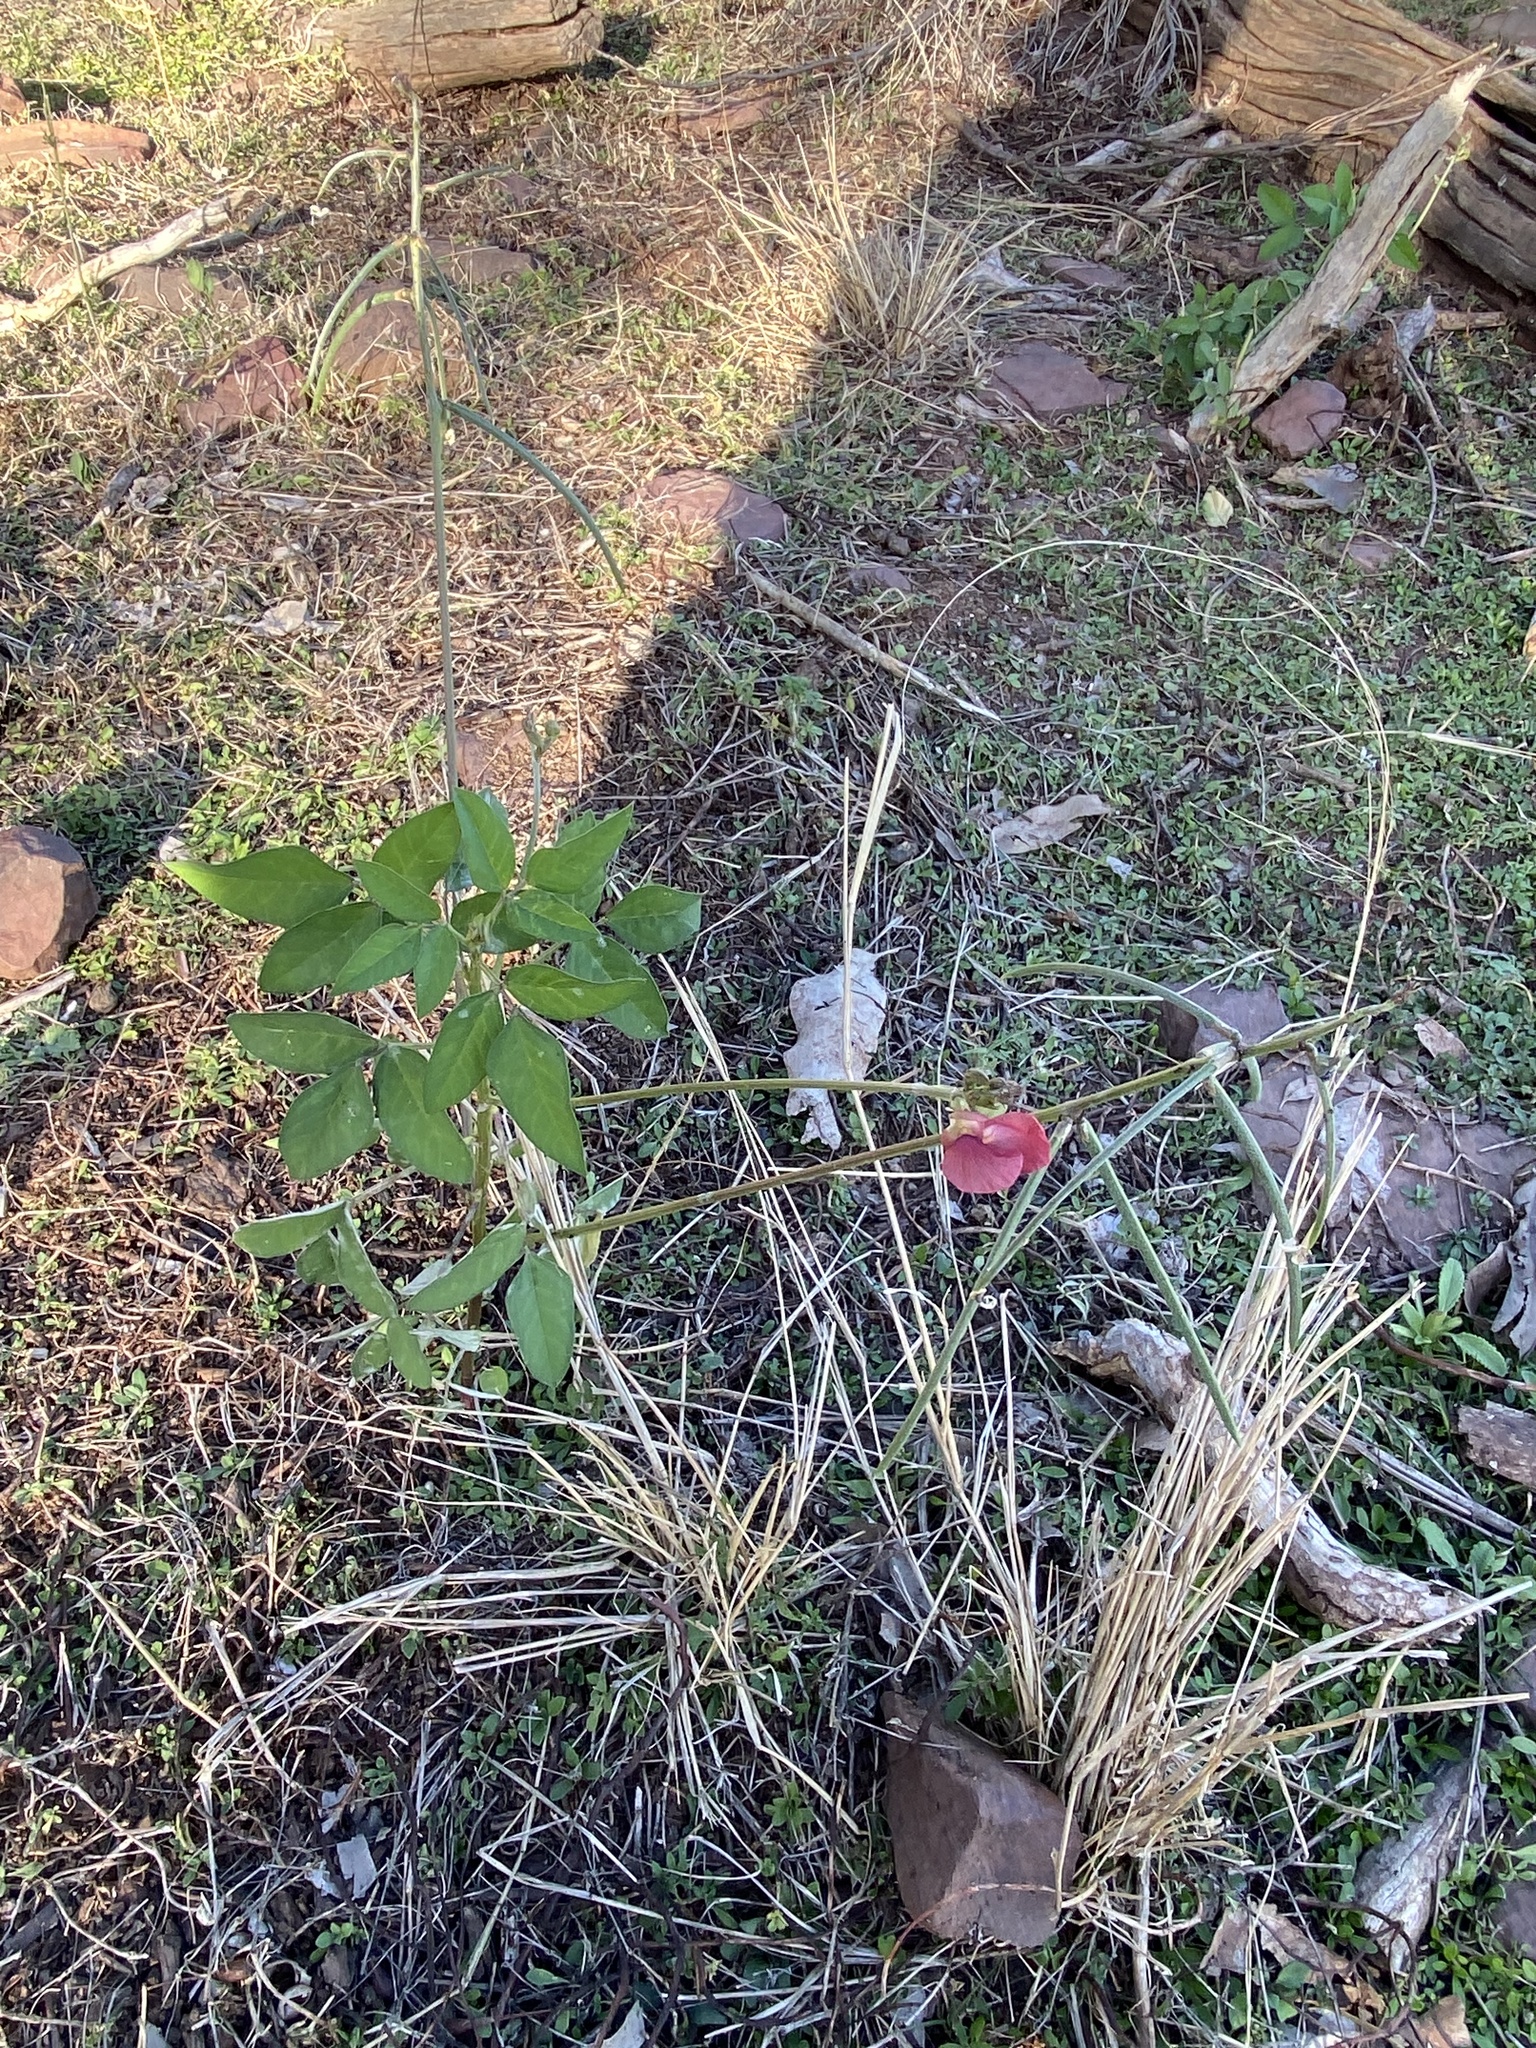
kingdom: Plantae
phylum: Tracheophyta
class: Magnoliopsida
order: Fabales
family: Fabaceae
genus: Macroptilium
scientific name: Macroptilium lathyroides
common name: Wild bushbean
